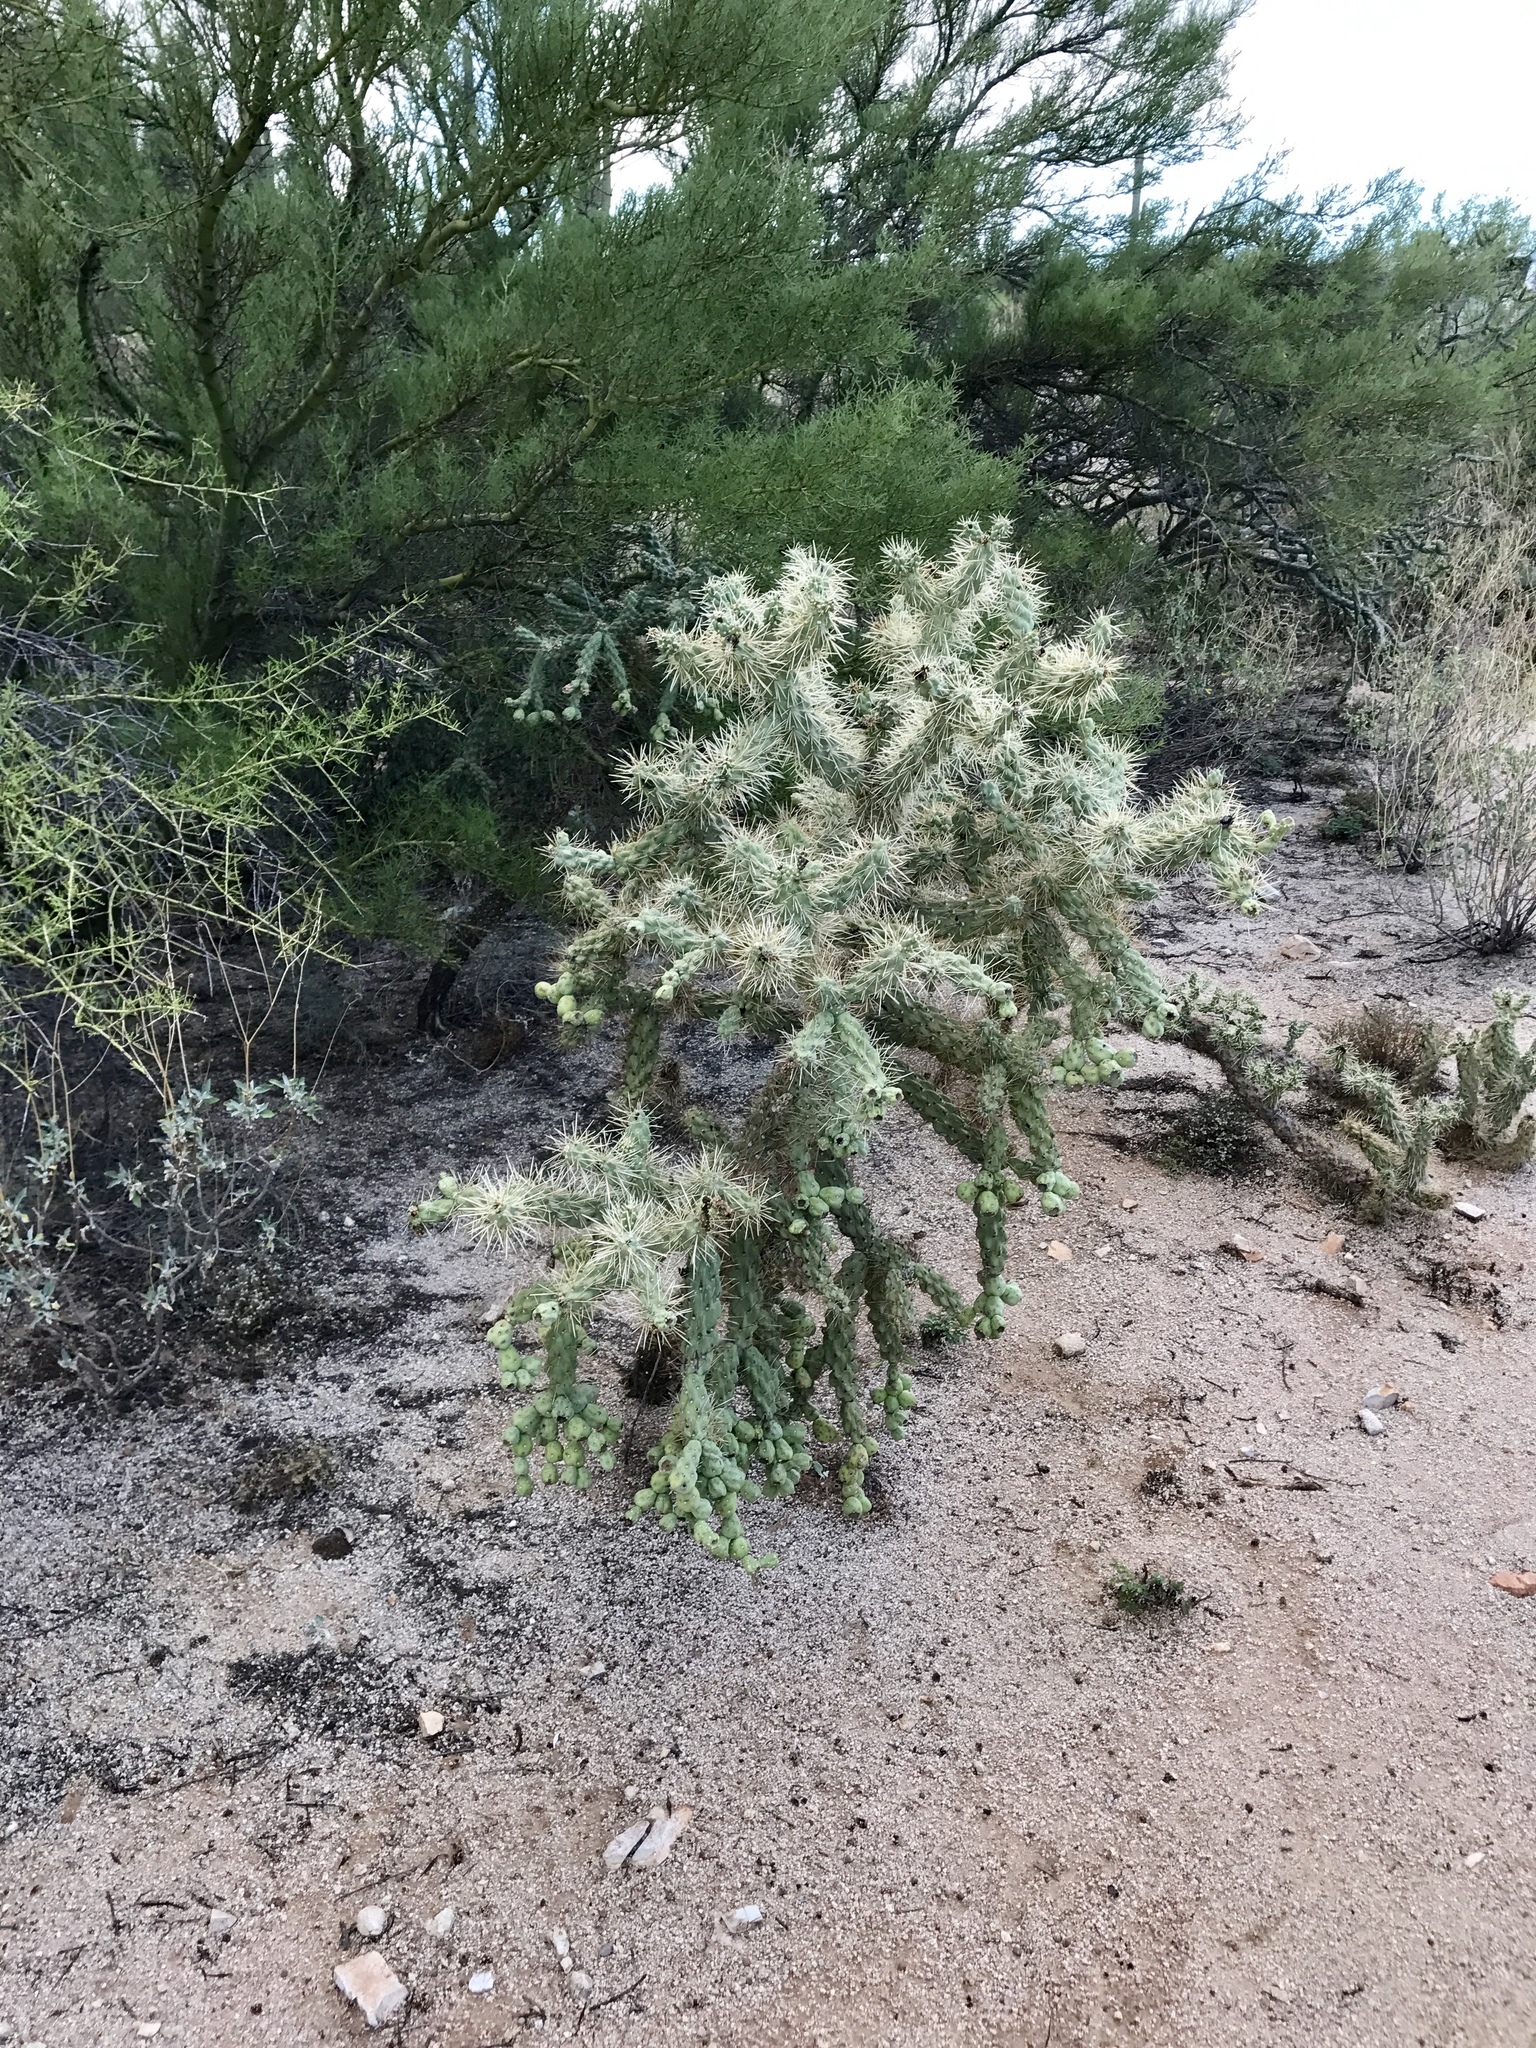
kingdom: Plantae
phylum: Tracheophyta
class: Magnoliopsida
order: Caryophyllales
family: Cactaceae
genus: Cylindropuntia
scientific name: Cylindropuntia fulgida
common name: Jumping cholla
